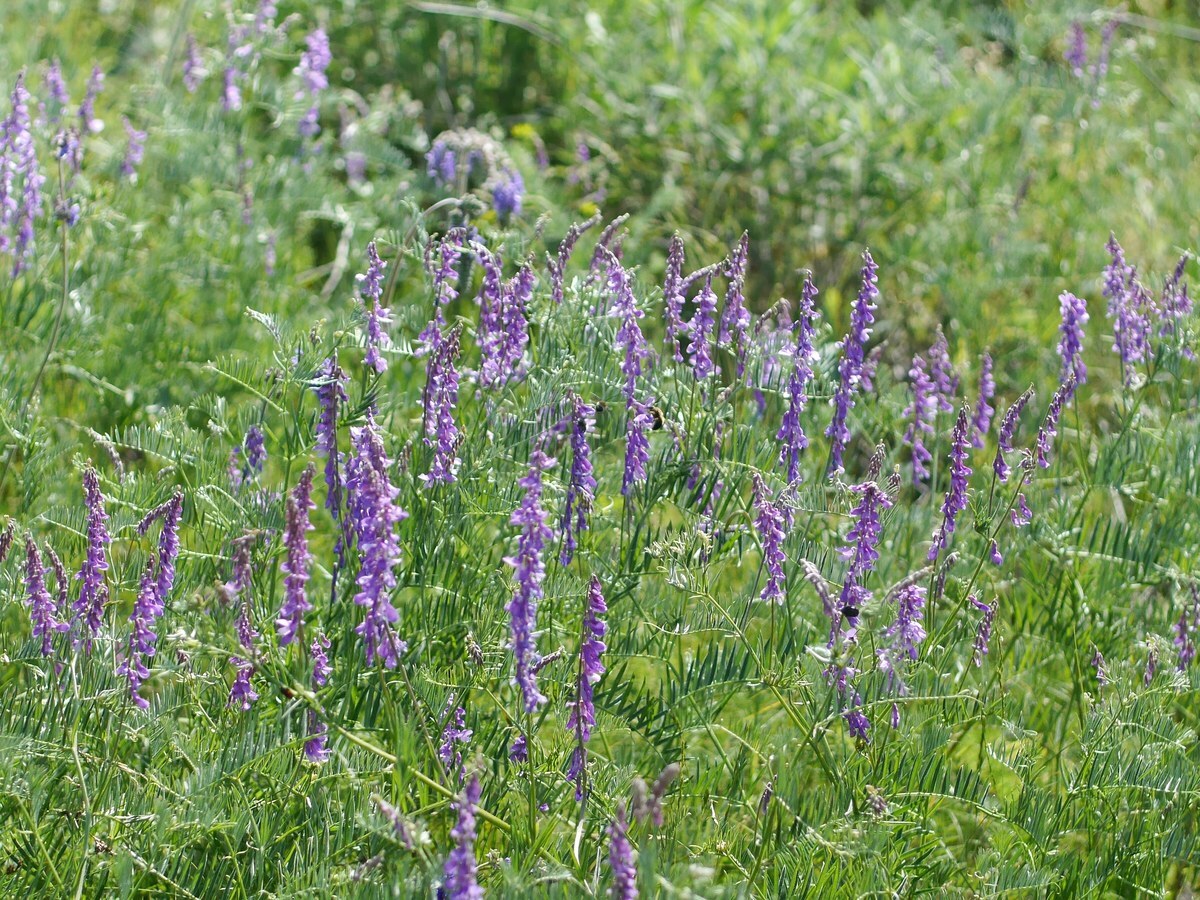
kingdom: Plantae
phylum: Tracheophyta
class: Magnoliopsida
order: Fabales
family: Fabaceae
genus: Vicia
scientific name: Vicia tenuifolia
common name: Fine-leaved vetch
